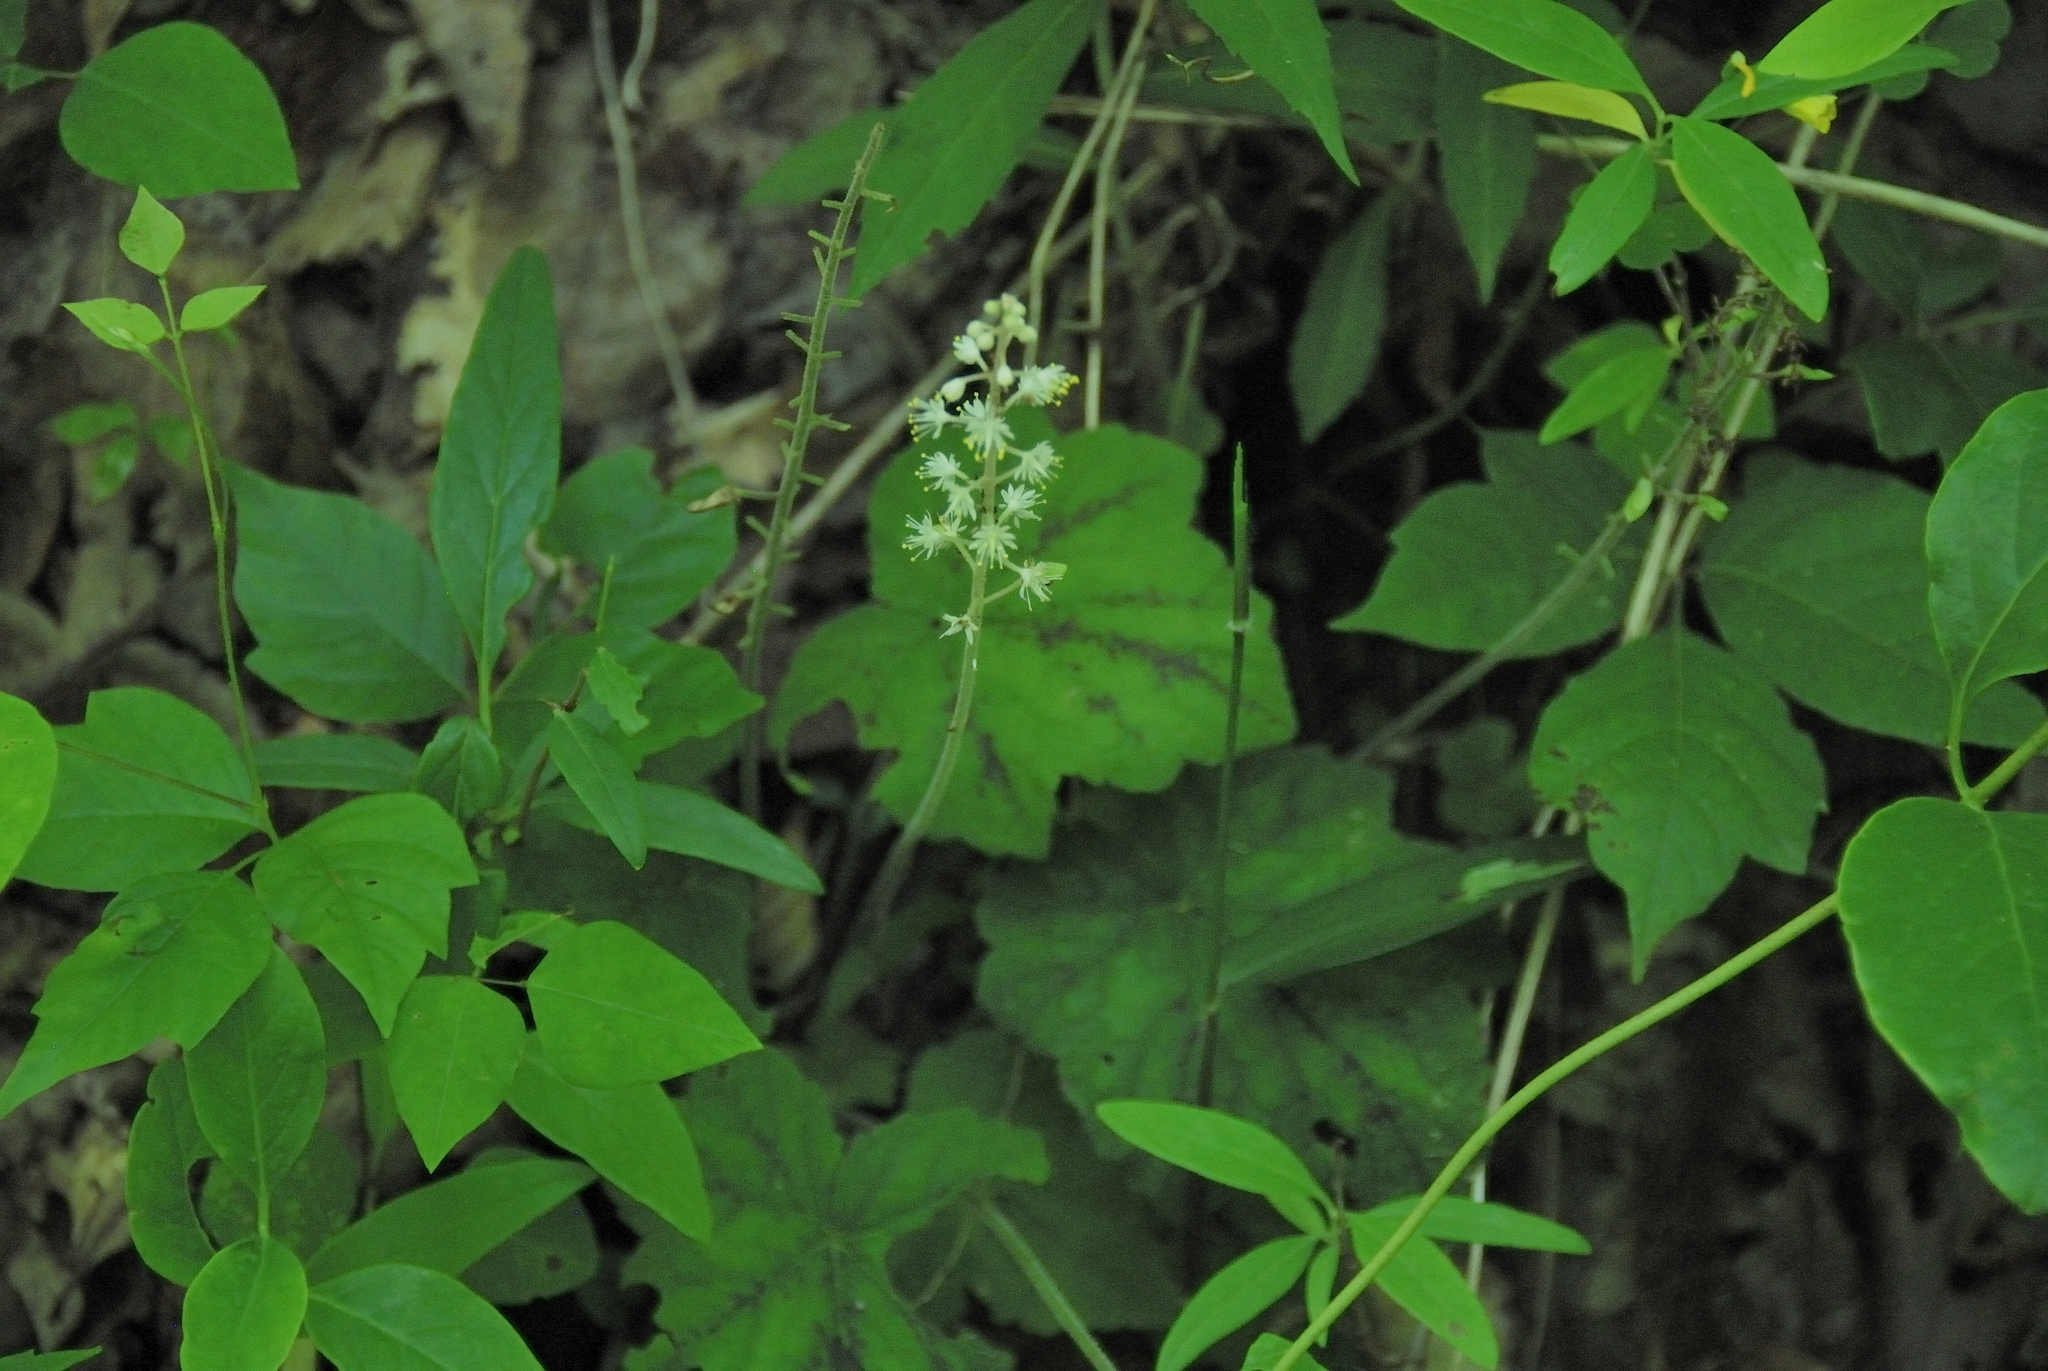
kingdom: Plantae
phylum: Tracheophyta
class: Magnoliopsida
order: Saxifragales
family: Saxifragaceae
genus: Tiarella
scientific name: Tiarella wherryi
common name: Tufted foamflower
